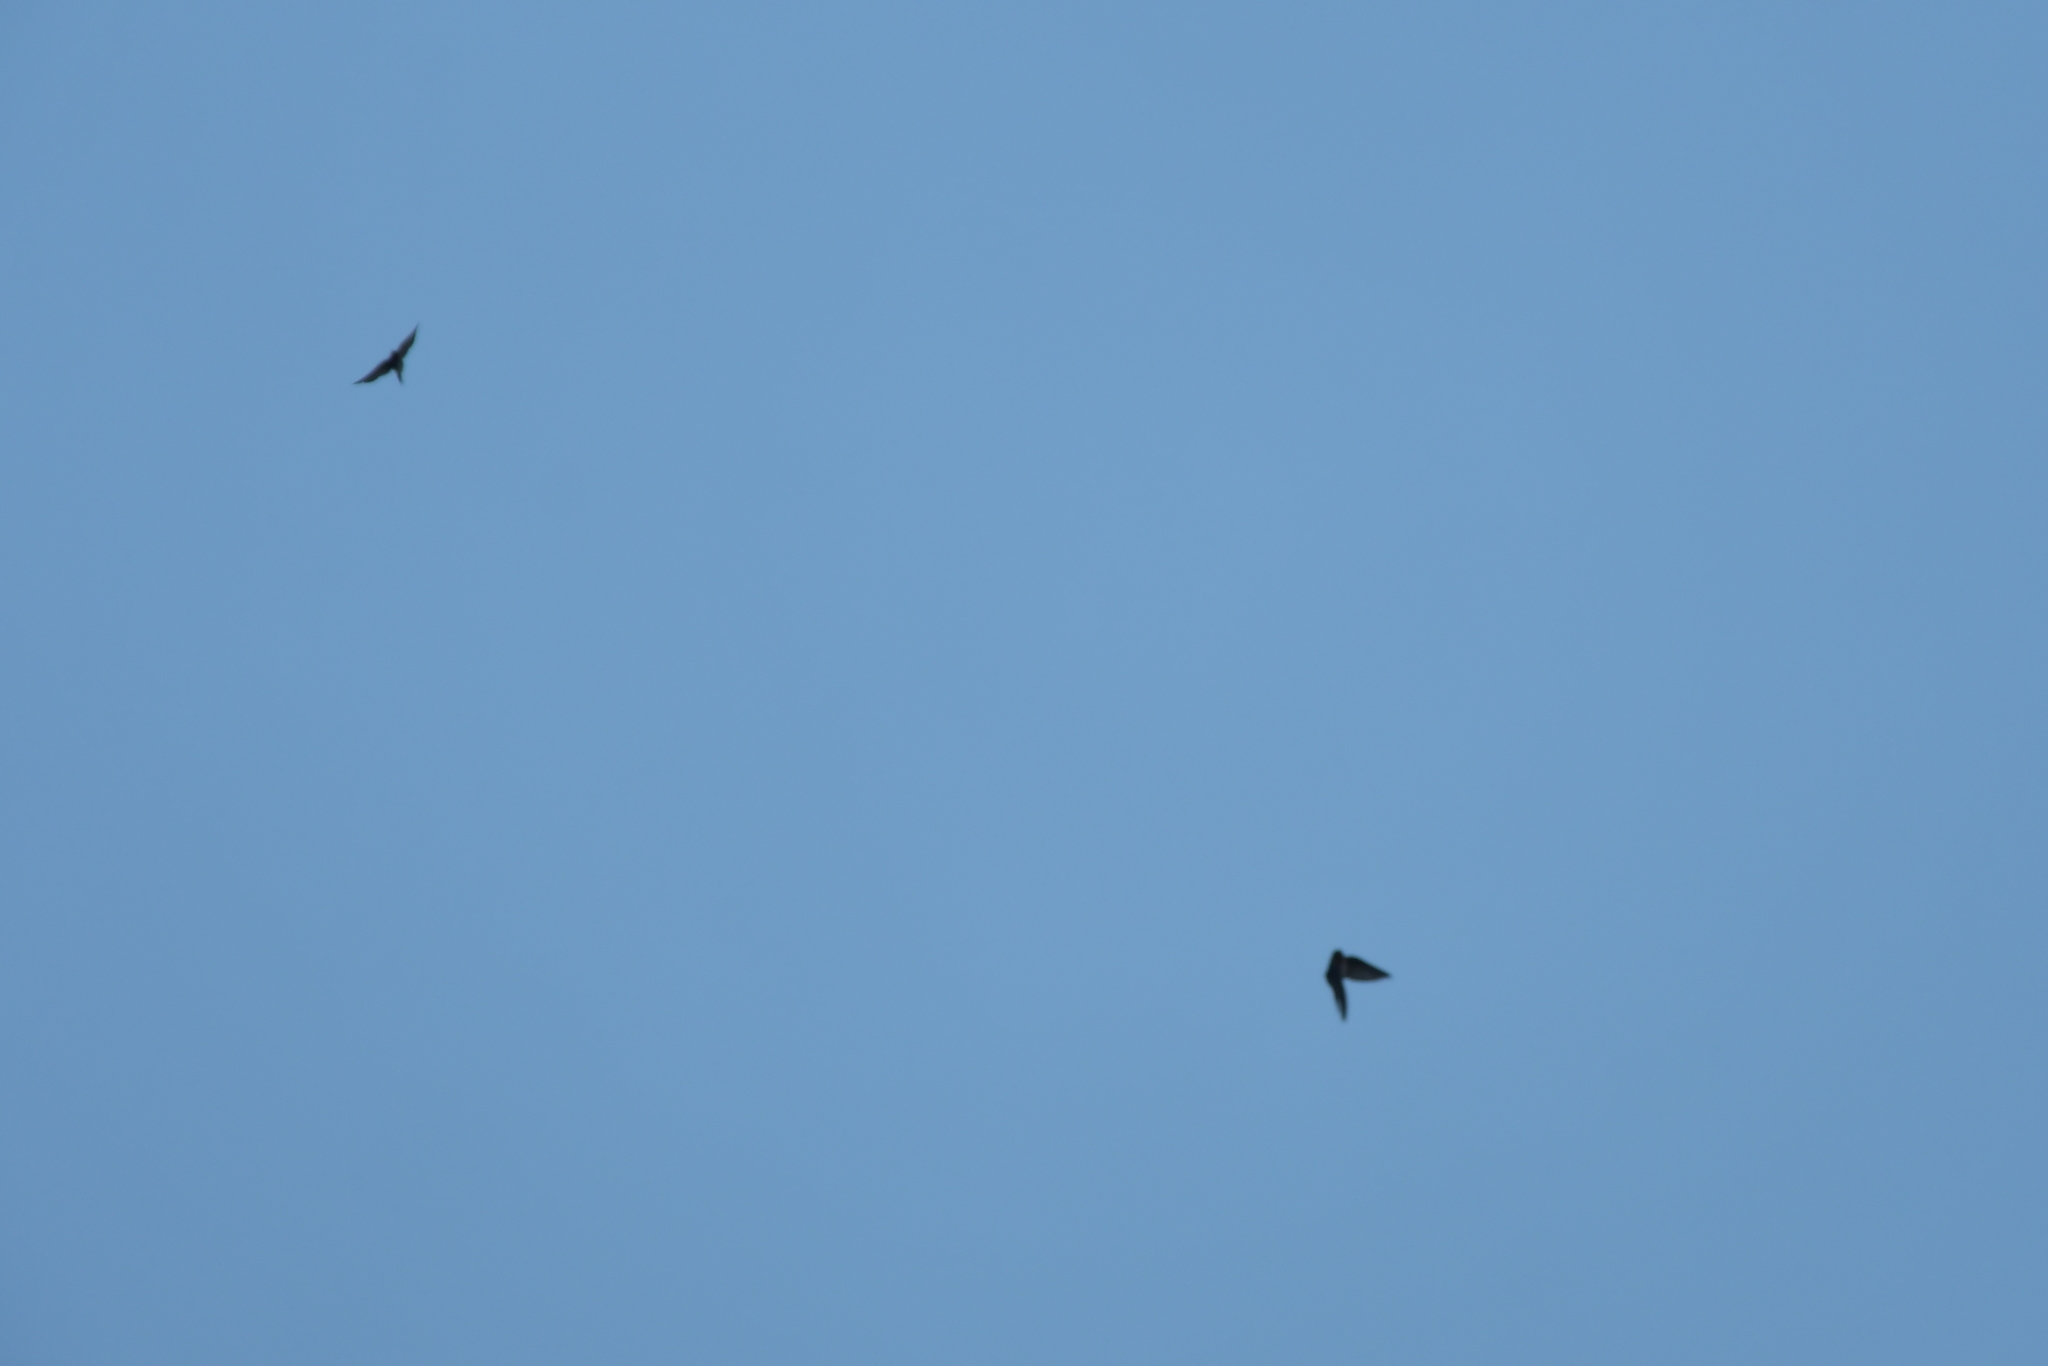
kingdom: Animalia
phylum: Chordata
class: Aves
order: Passeriformes
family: Hirundinidae
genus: Hirundo
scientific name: Hirundo neoxena
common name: Welcome swallow
